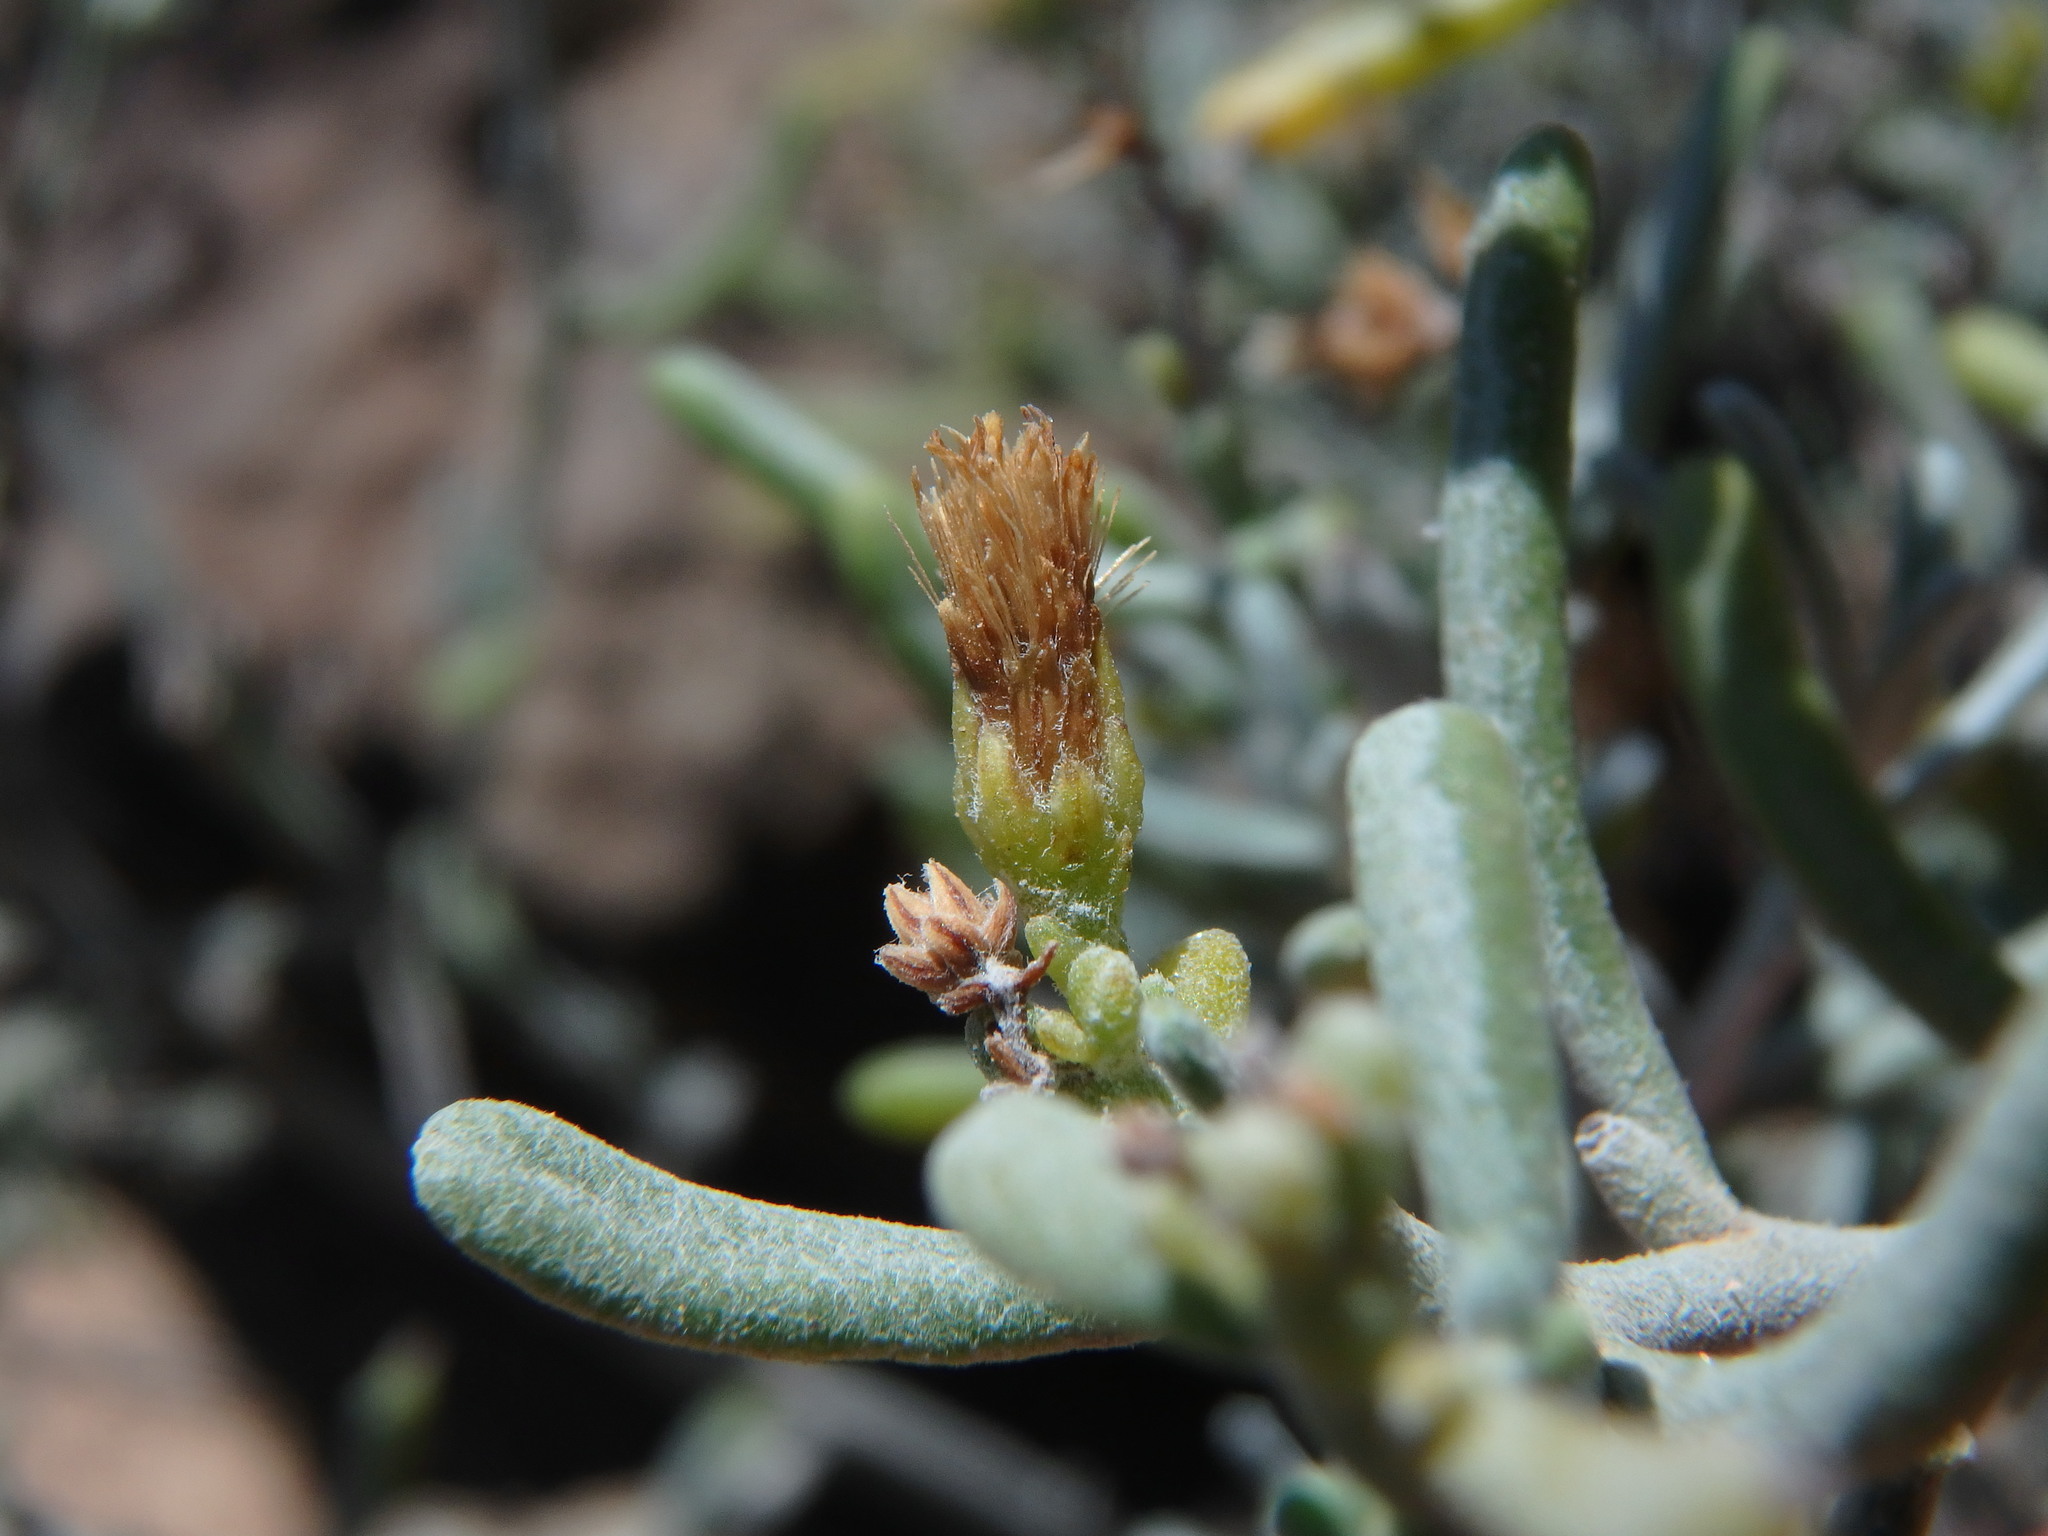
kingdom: Plantae
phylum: Tracheophyta
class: Magnoliopsida
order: Asterales
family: Asteraceae
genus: Schizogyne
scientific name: Schizogyne sericea
